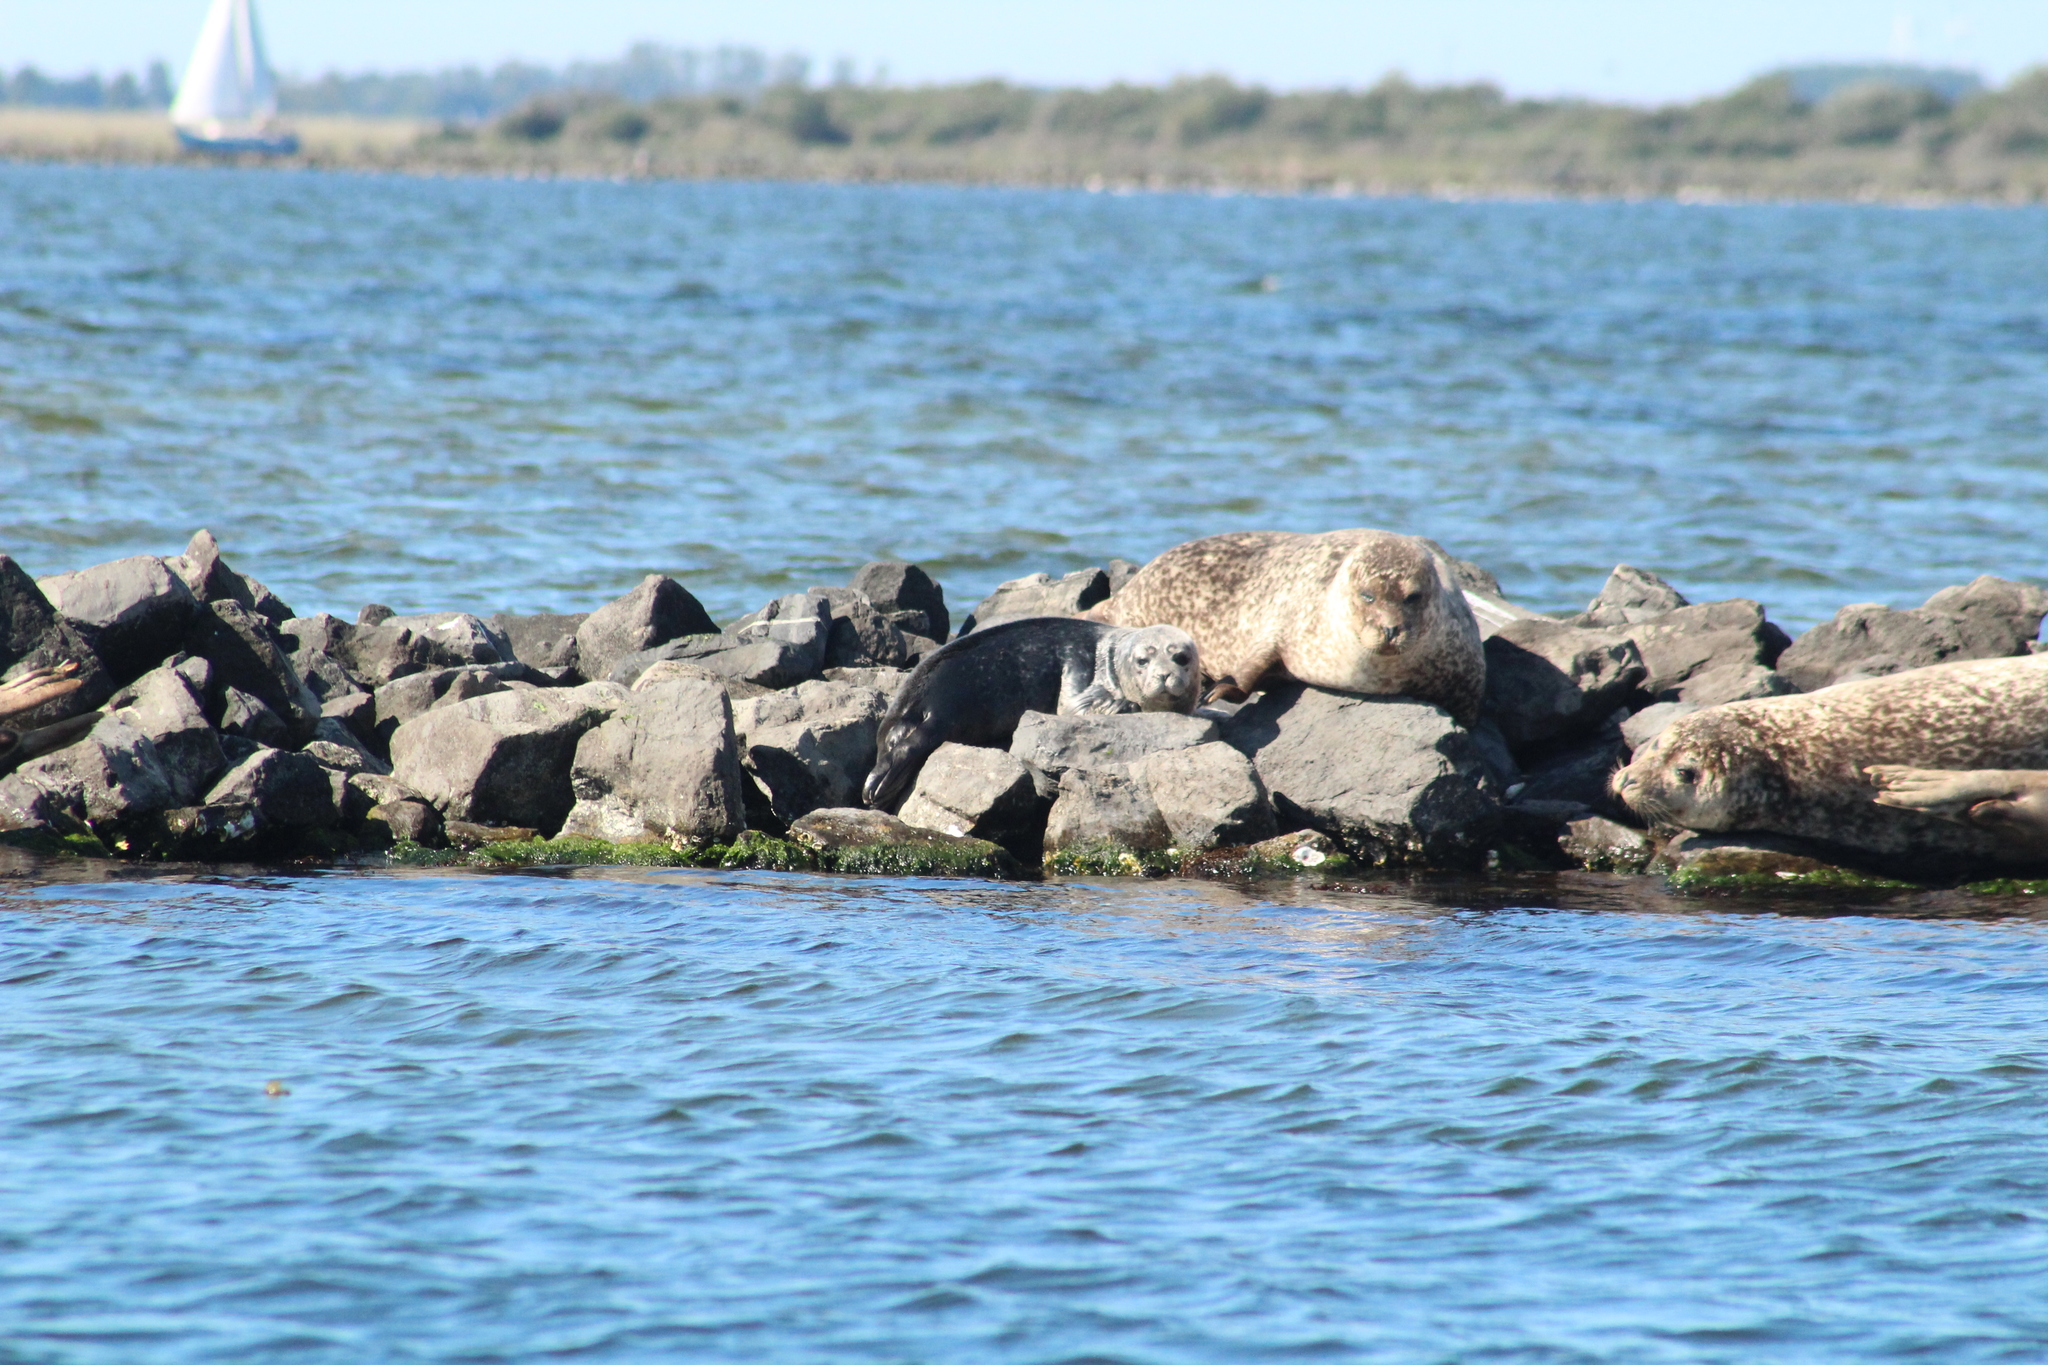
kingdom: Animalia
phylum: Chordata
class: Mammalia
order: Carnivora
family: Phocidae
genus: Phoca
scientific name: Phoca vitulina
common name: Harbor seal
